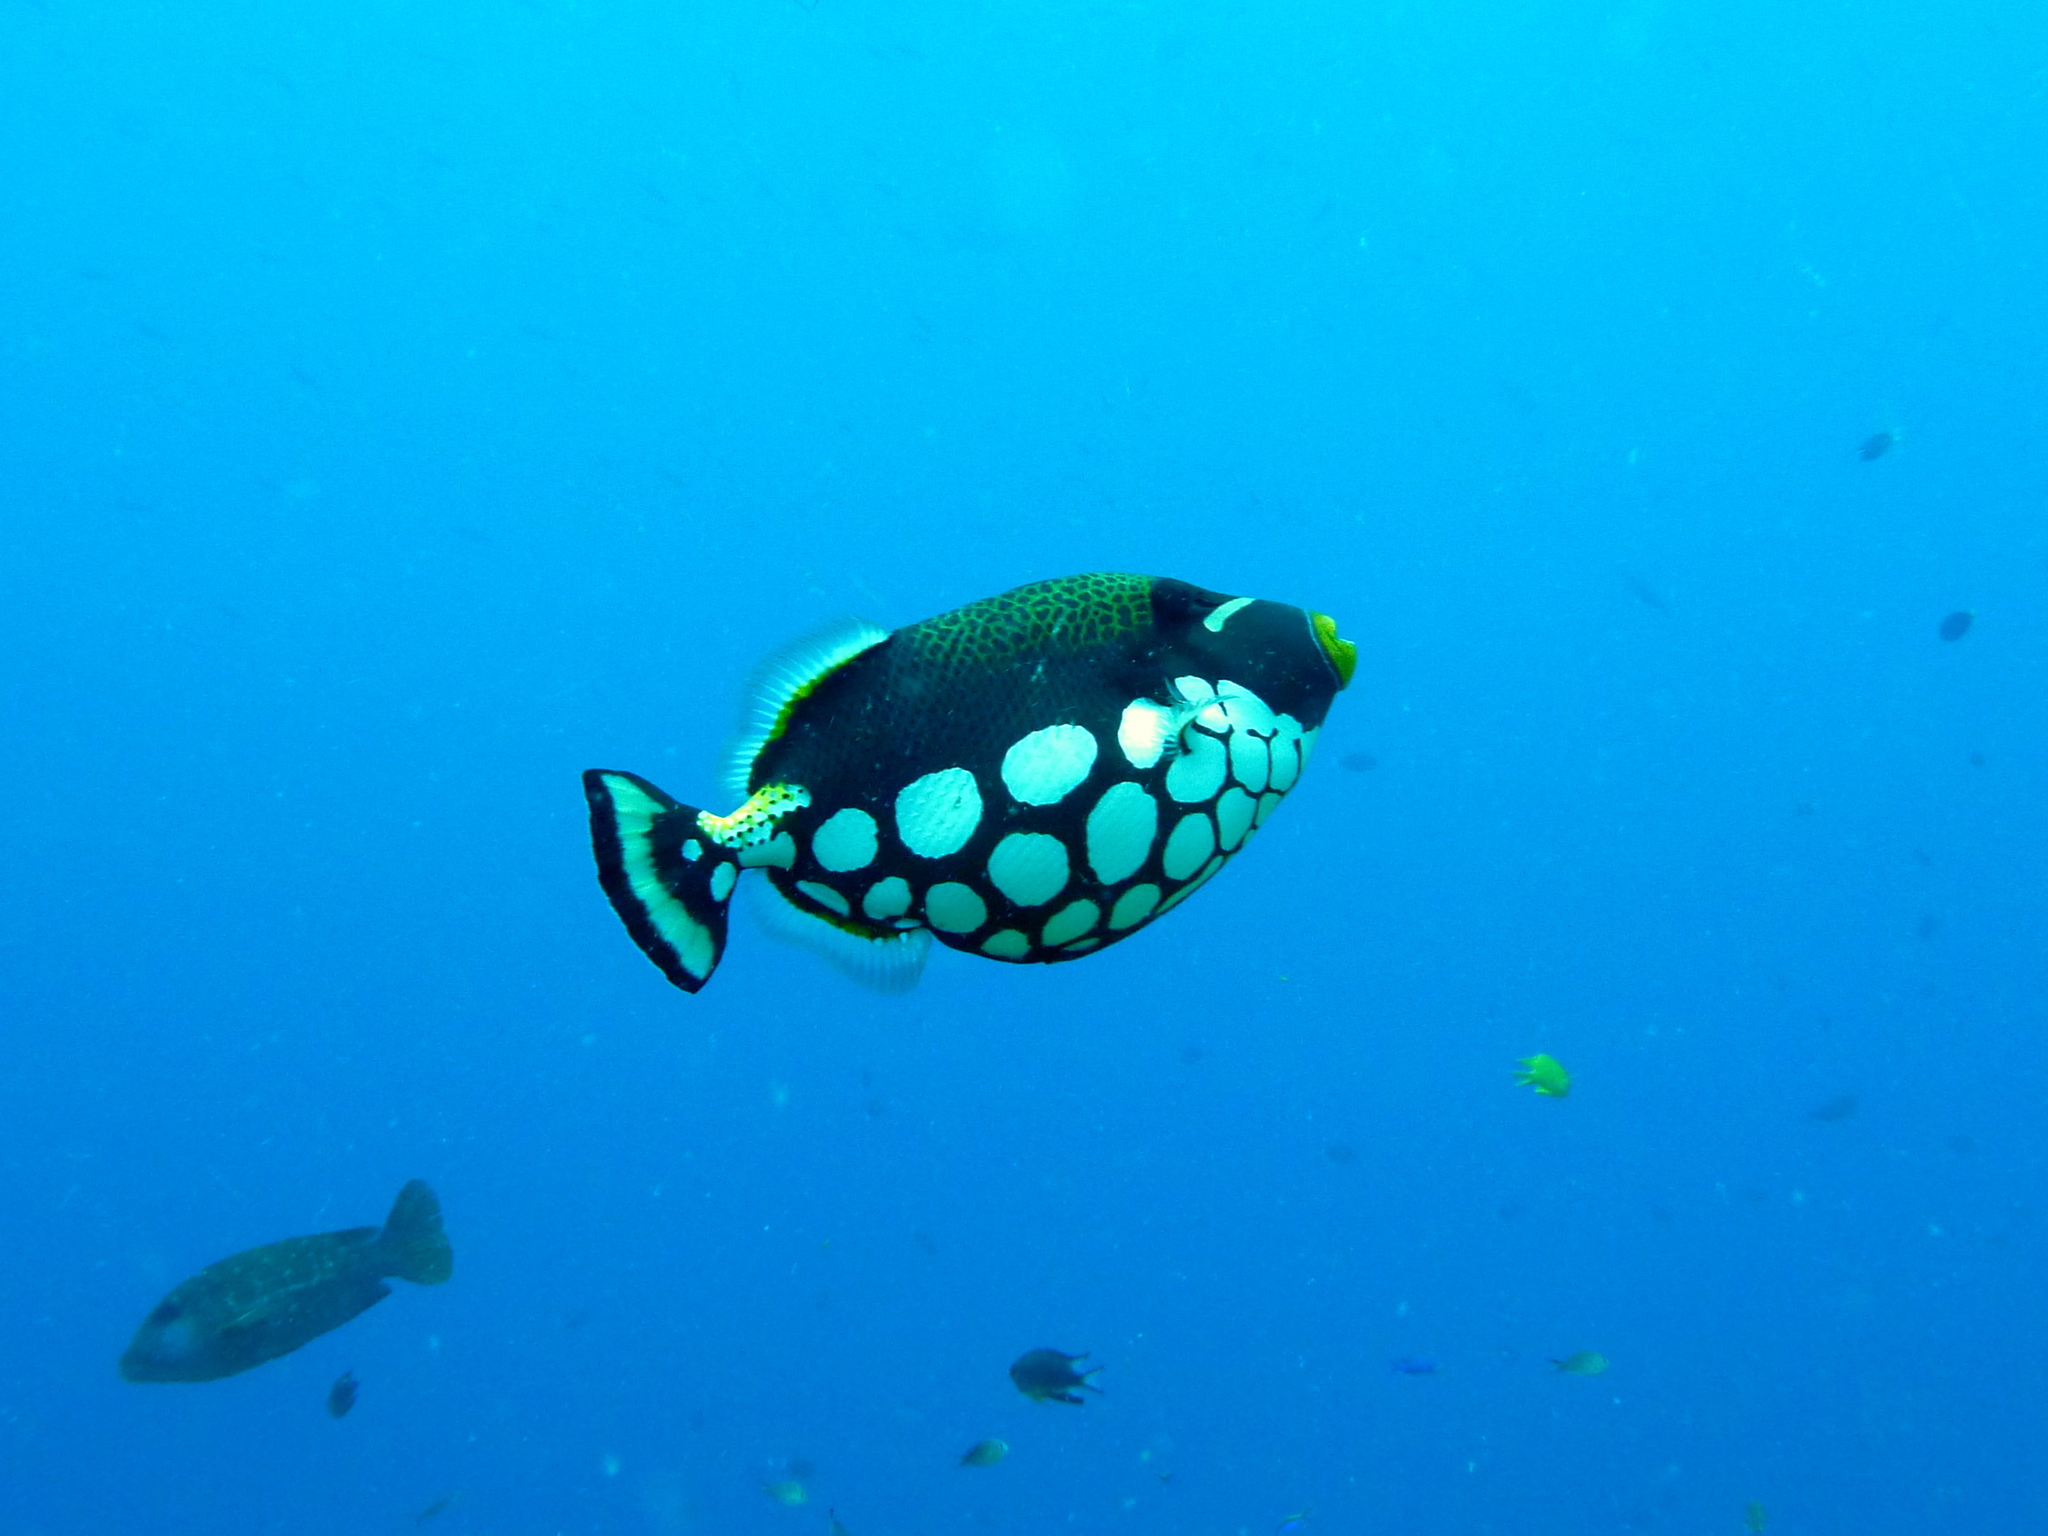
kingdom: Animalia
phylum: Chordata
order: Tetraodontiformes
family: Balistidae
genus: Balistoides
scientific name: Balistoides conspicillum
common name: Clown triggerfish
